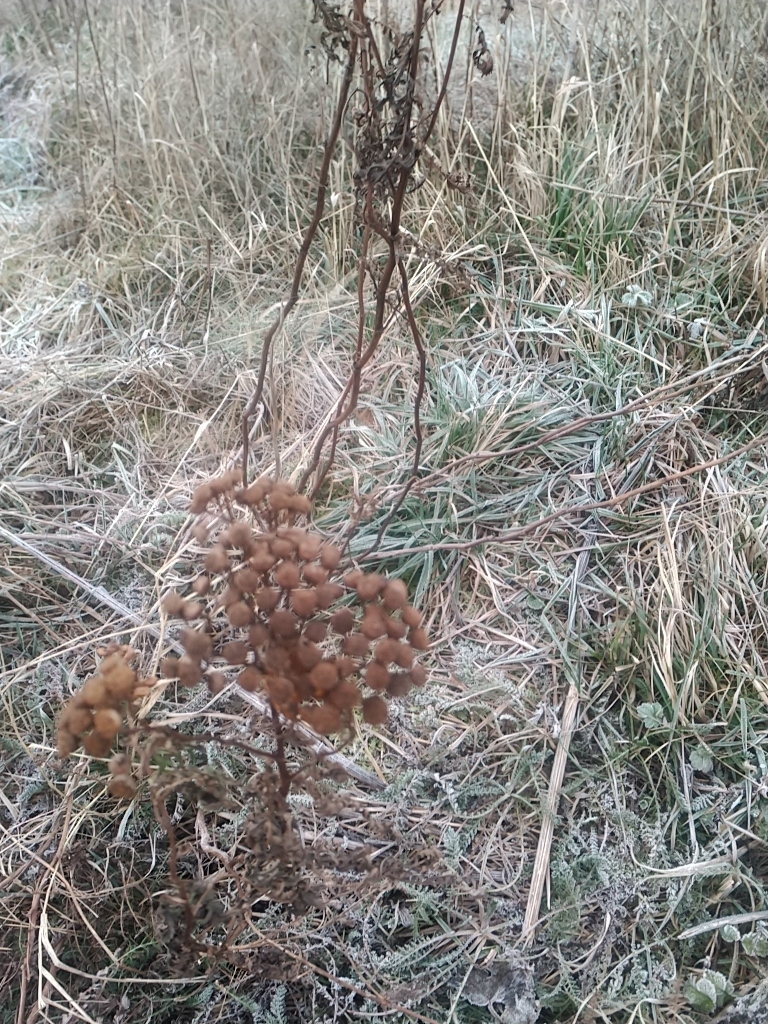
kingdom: Plantae
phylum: Tracheophyta
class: Magnoliopsida
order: Asterales
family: Asteraceae
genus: Tanacetum
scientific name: Tanacetum vulgare
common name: Common tansy
